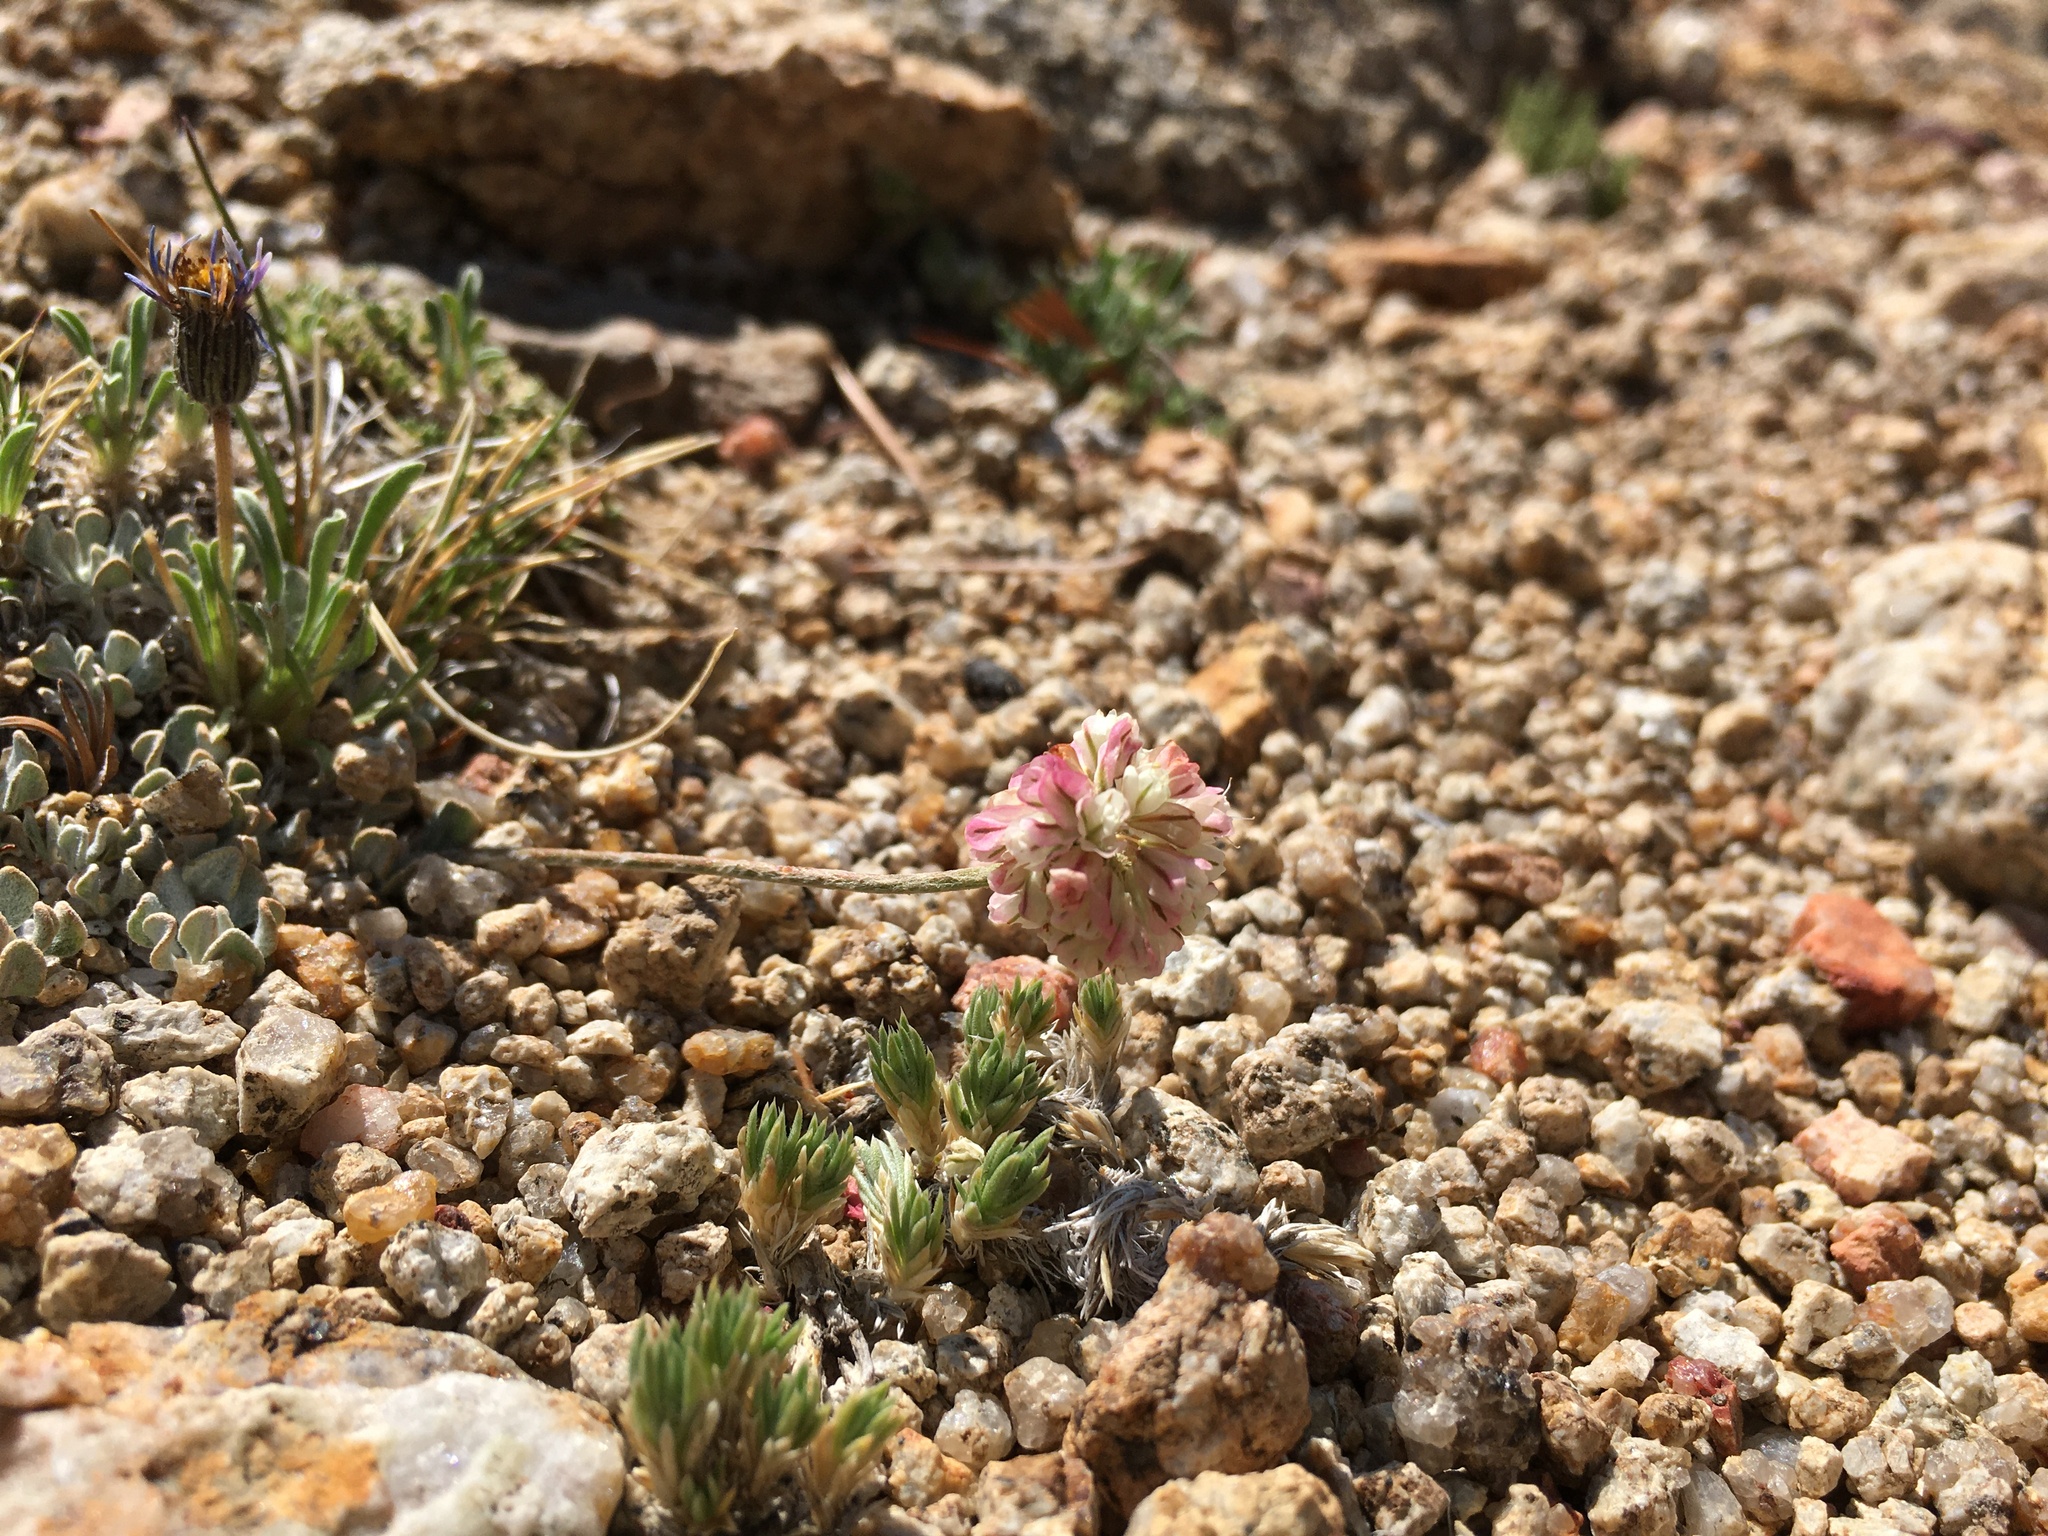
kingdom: Plantae
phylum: Tracheophyta
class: Magnoliopsida
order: Caryophyllales
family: Polygonaceae
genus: Eriogonum
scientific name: Eriogonum ovalifolium
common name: Cushion buckwheat
